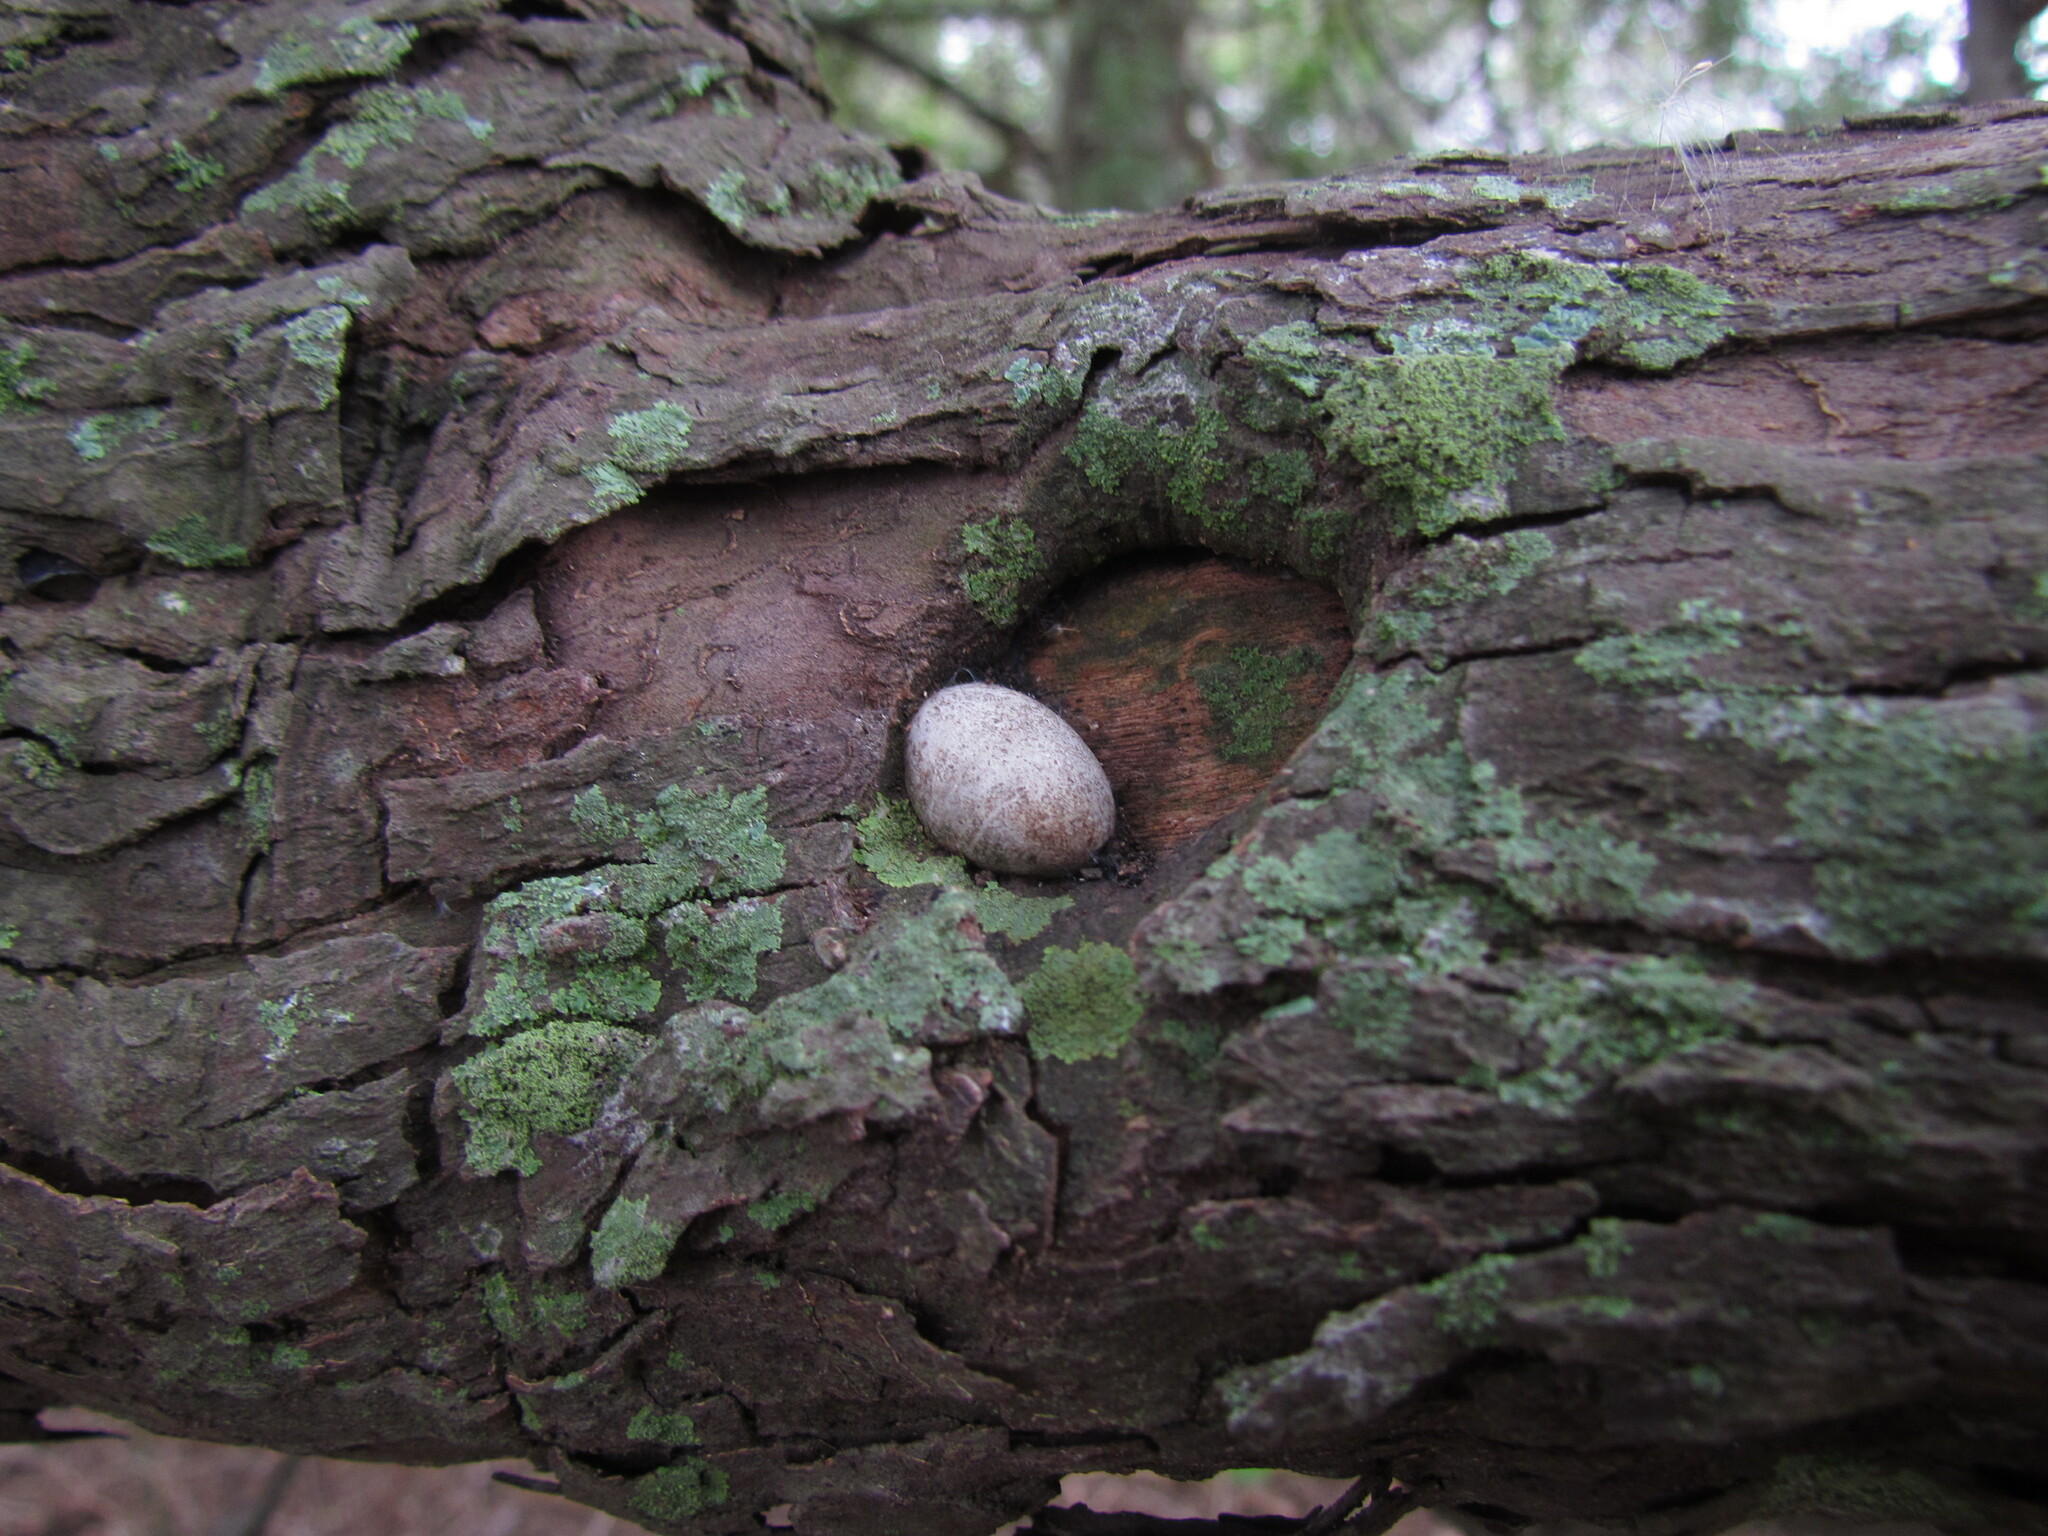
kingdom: Animalia
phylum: Arthropoda
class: Insecta
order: Lepidoptera
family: Limacodidae
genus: Acharia
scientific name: Acharia
